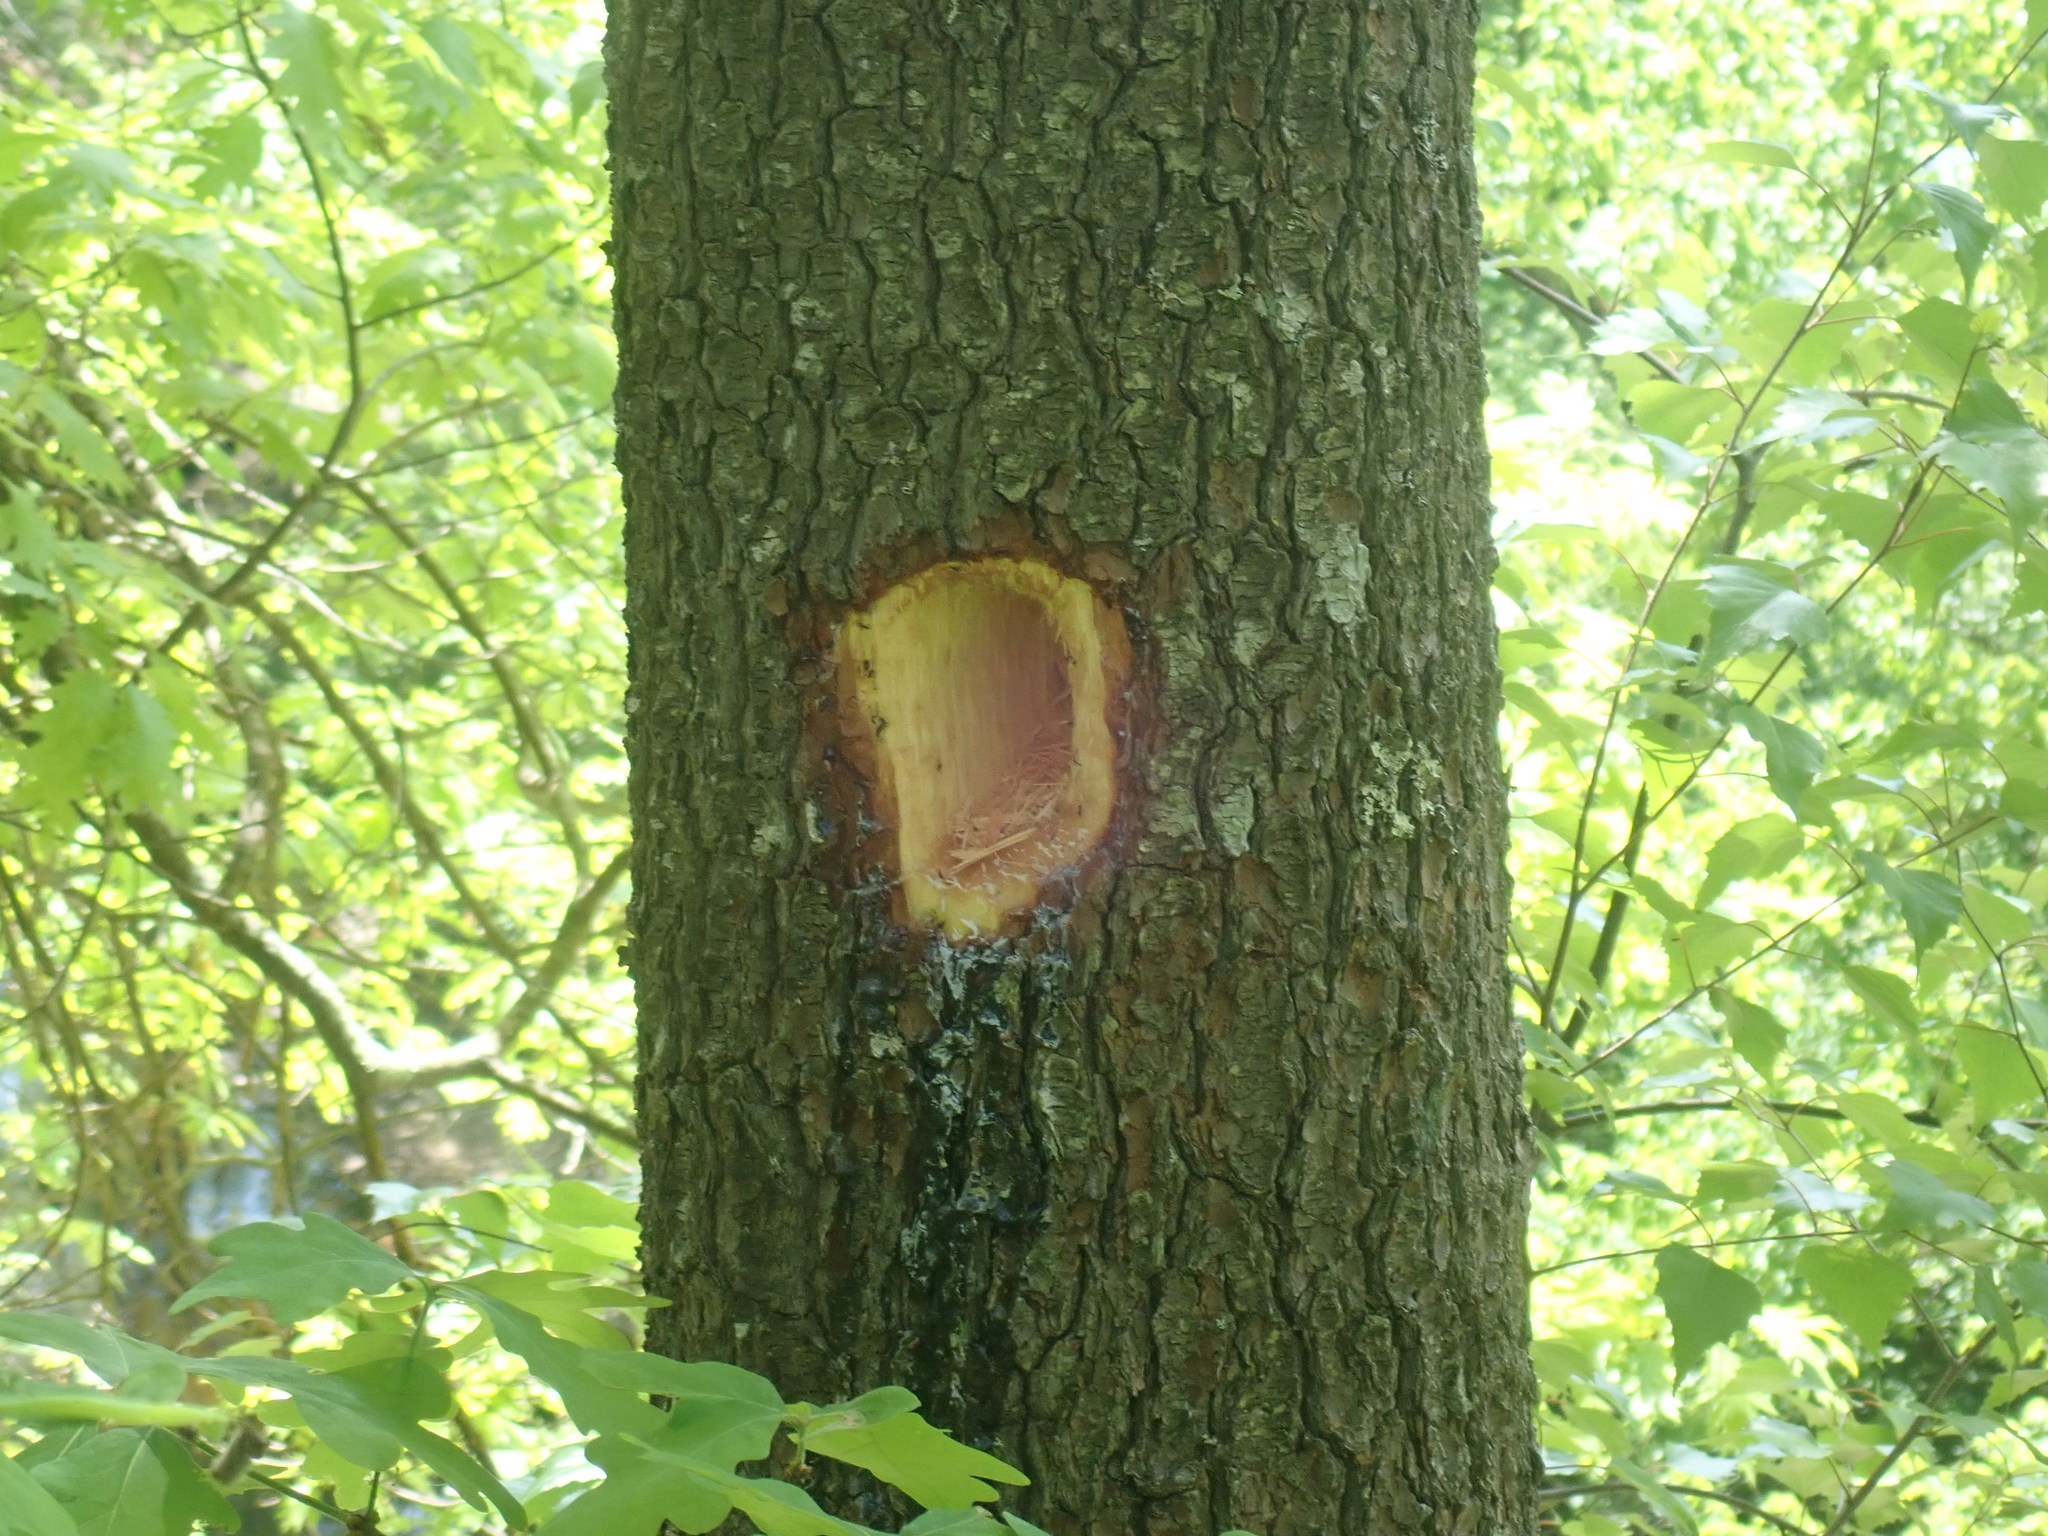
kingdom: Animalia
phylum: Chordata
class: Aves
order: Piciformes
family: Picidae
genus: Dryocopus
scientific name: Dryocopus pileatus
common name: Pileated woodpecker
